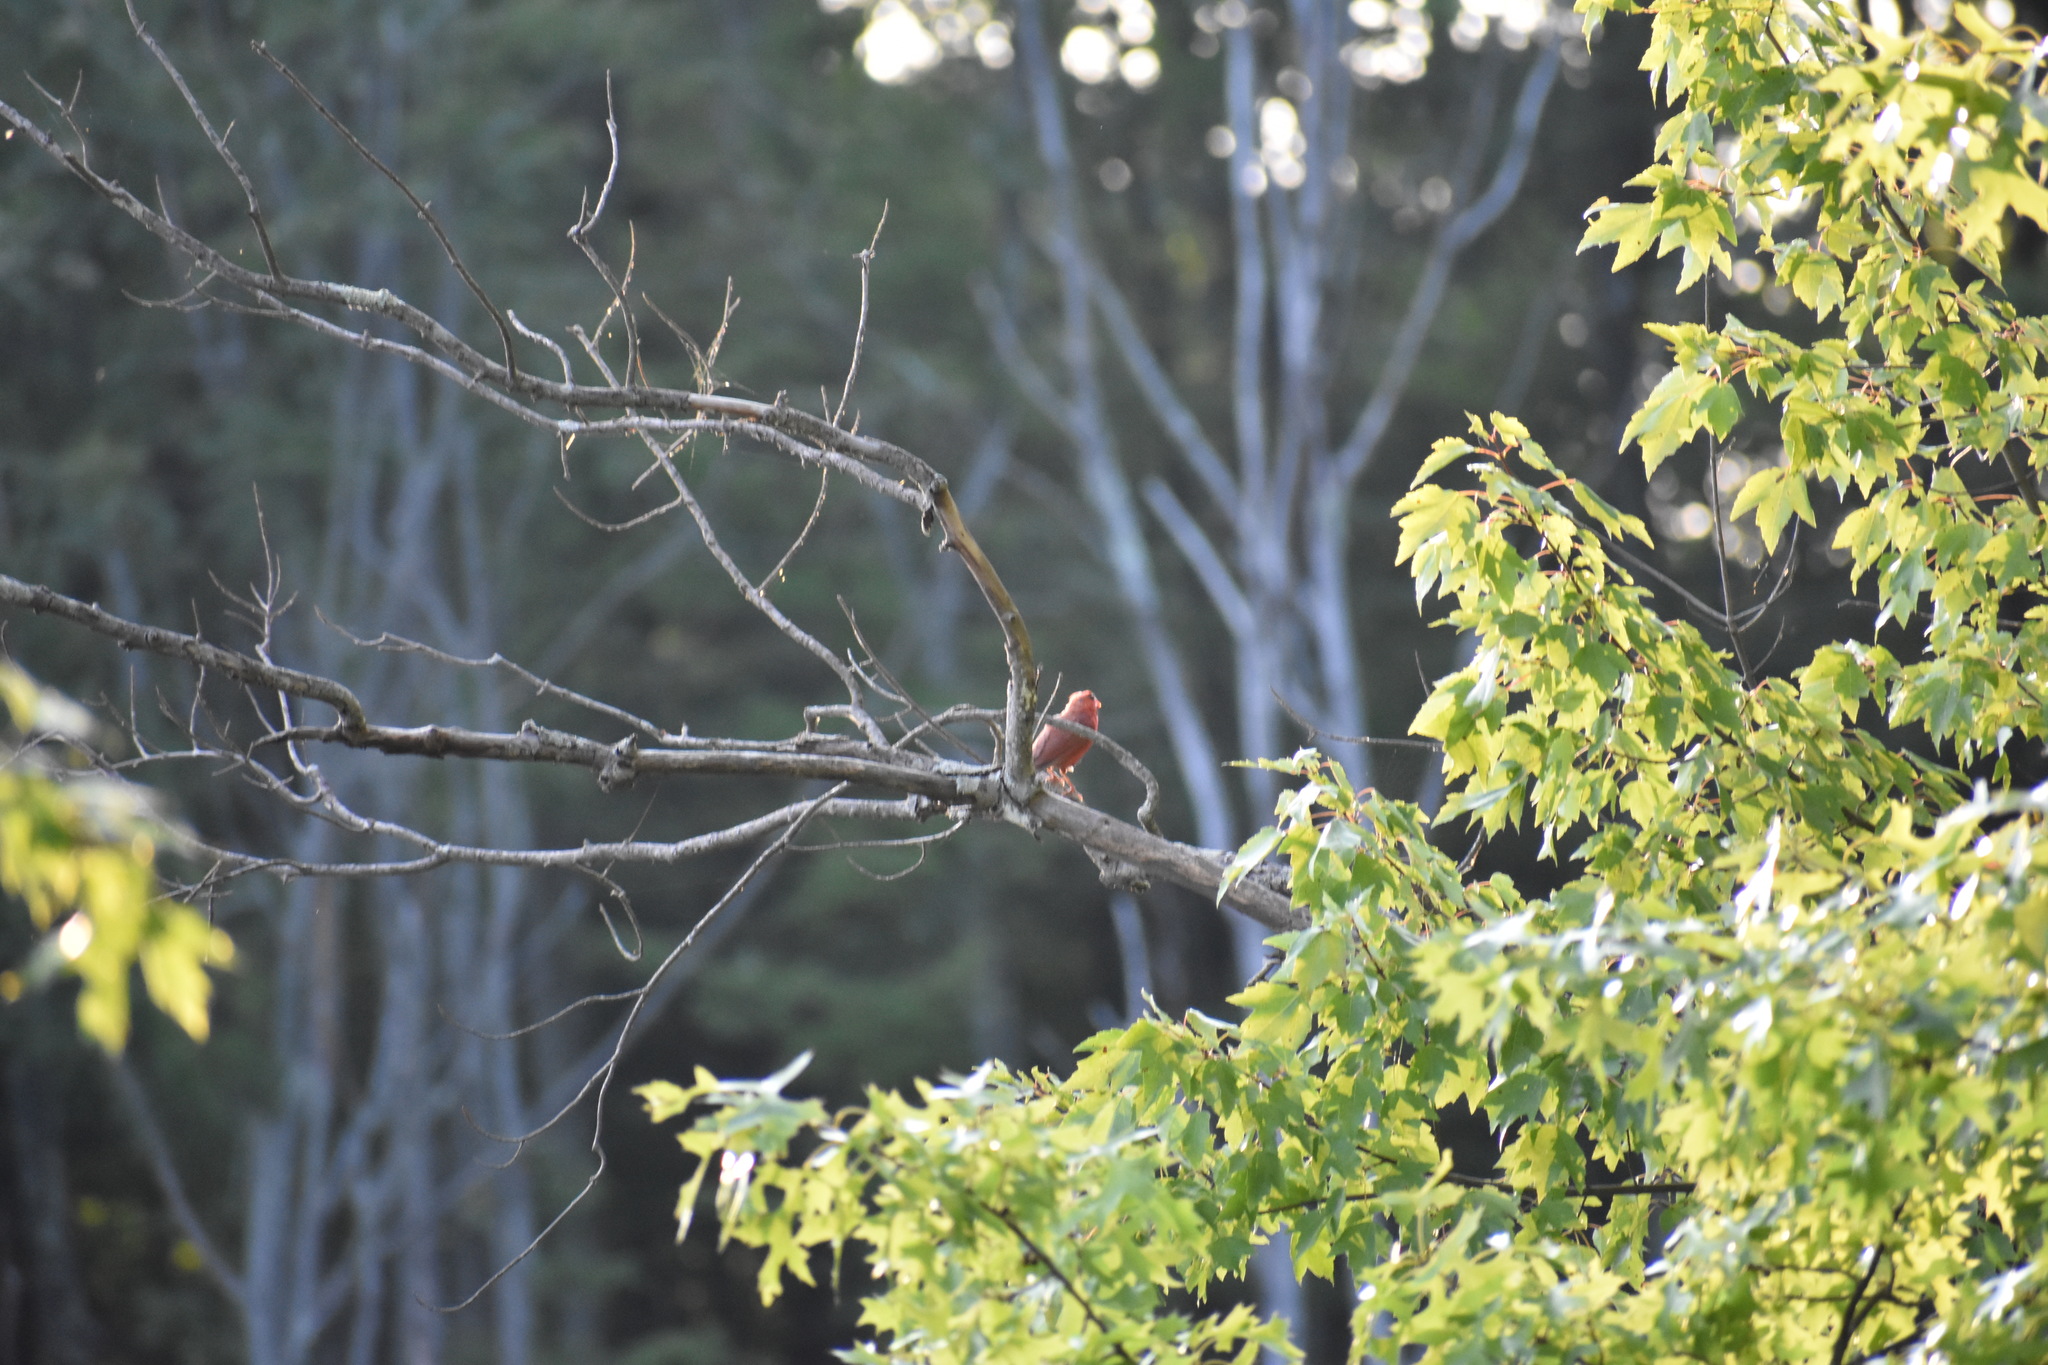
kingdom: Animalia
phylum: Chordata
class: Aves
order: Passeriformes
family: Cardinalidae
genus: Cardinalis
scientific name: Cardinalis cardinalis
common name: Northern cardinal
